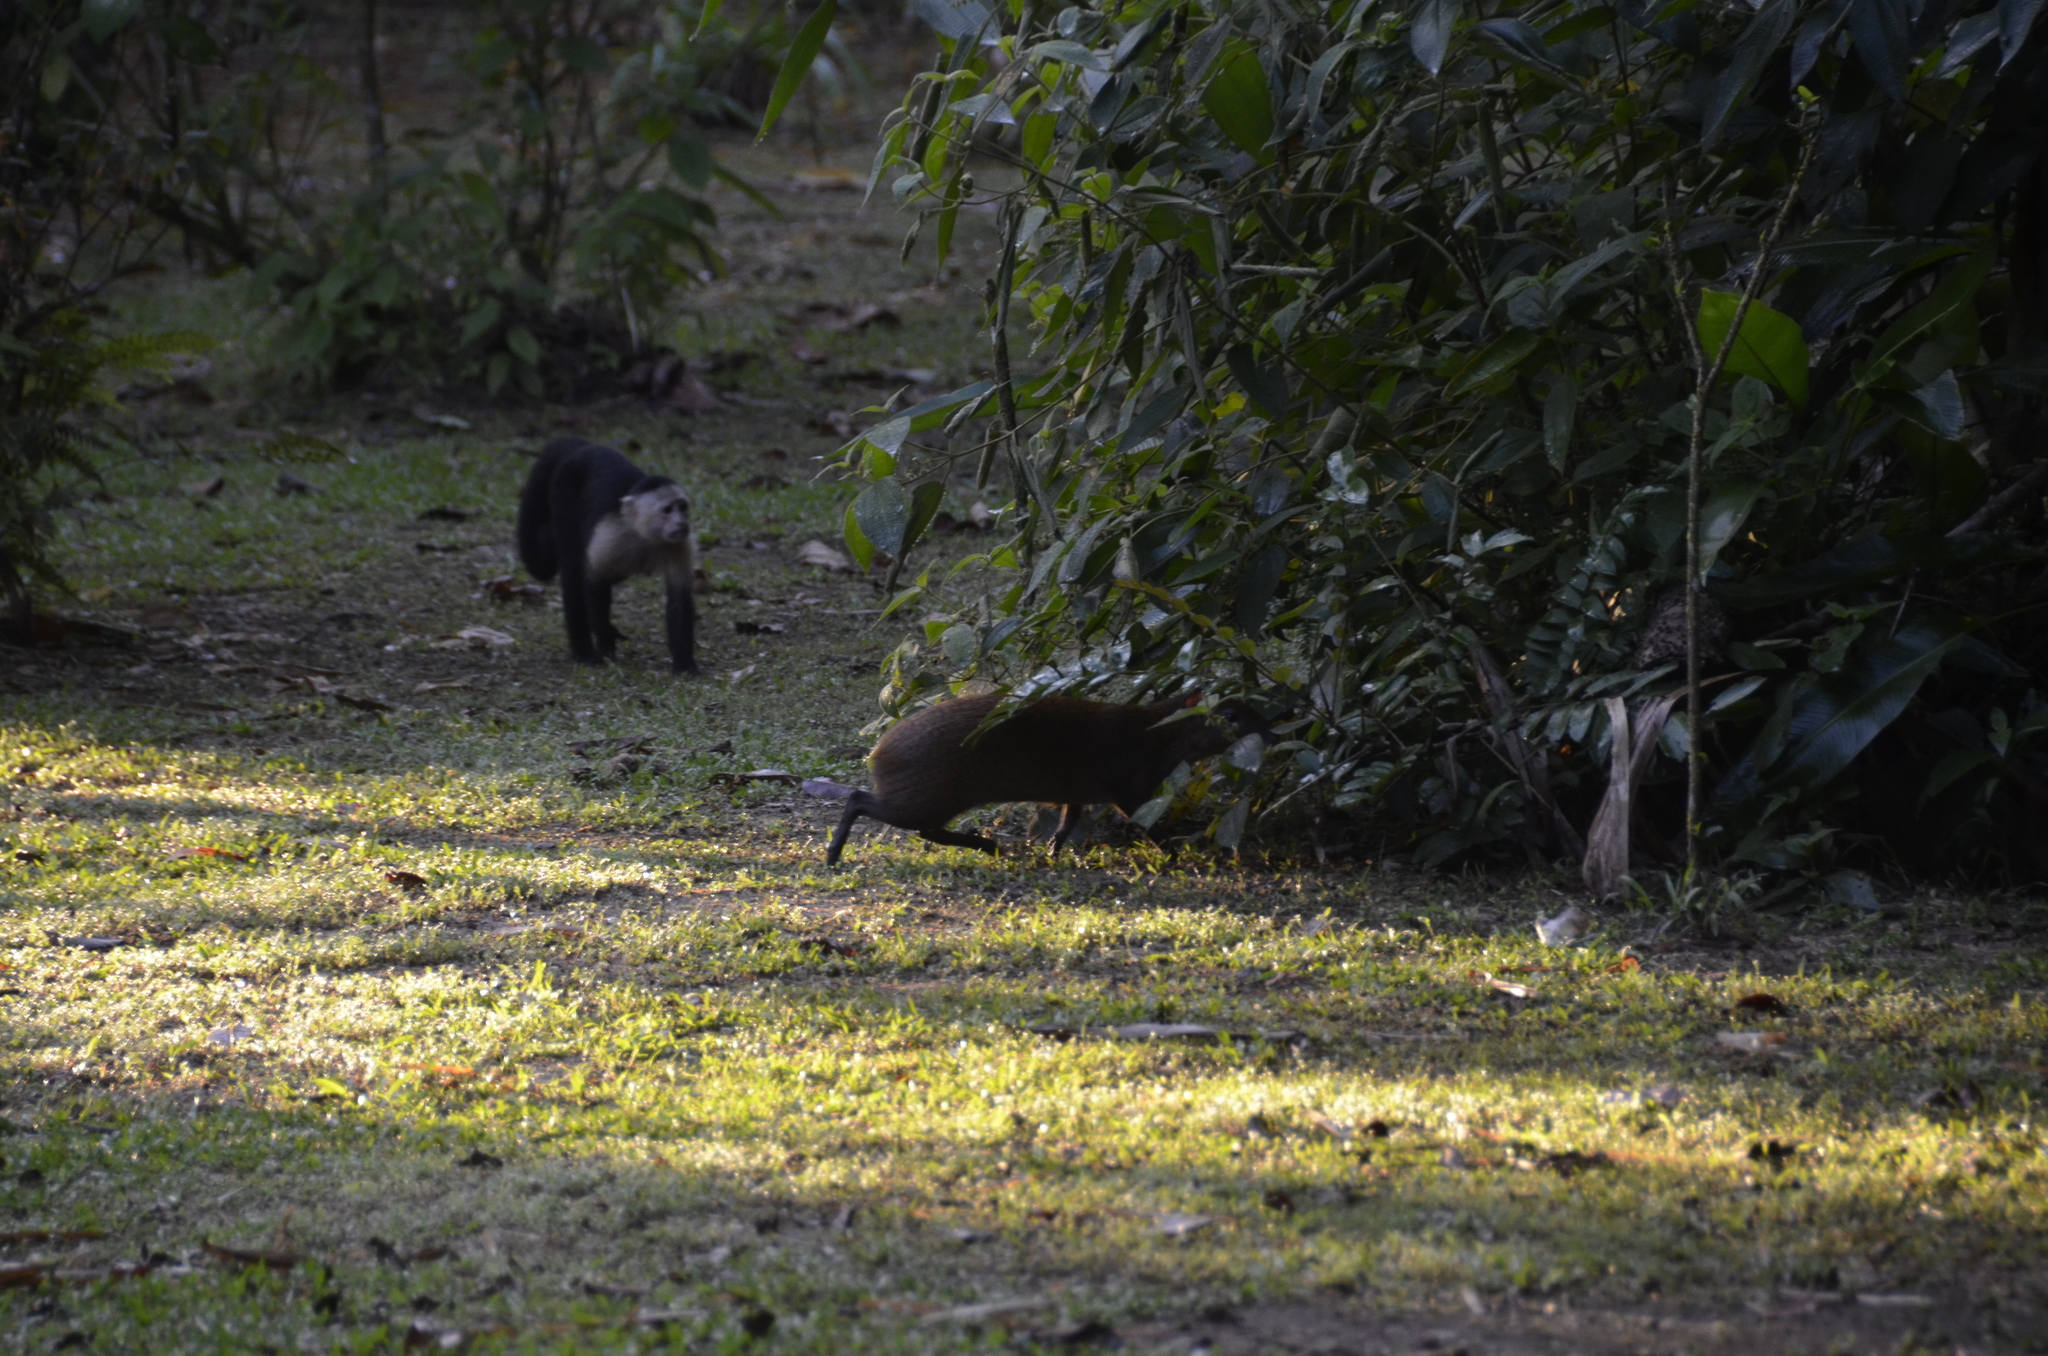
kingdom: Animalia
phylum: Chordata
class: Mammalia
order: Rodentia
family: Dasyproctidae
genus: Dasyprocta
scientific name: Dasyprocta punctata
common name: Central american agouti
